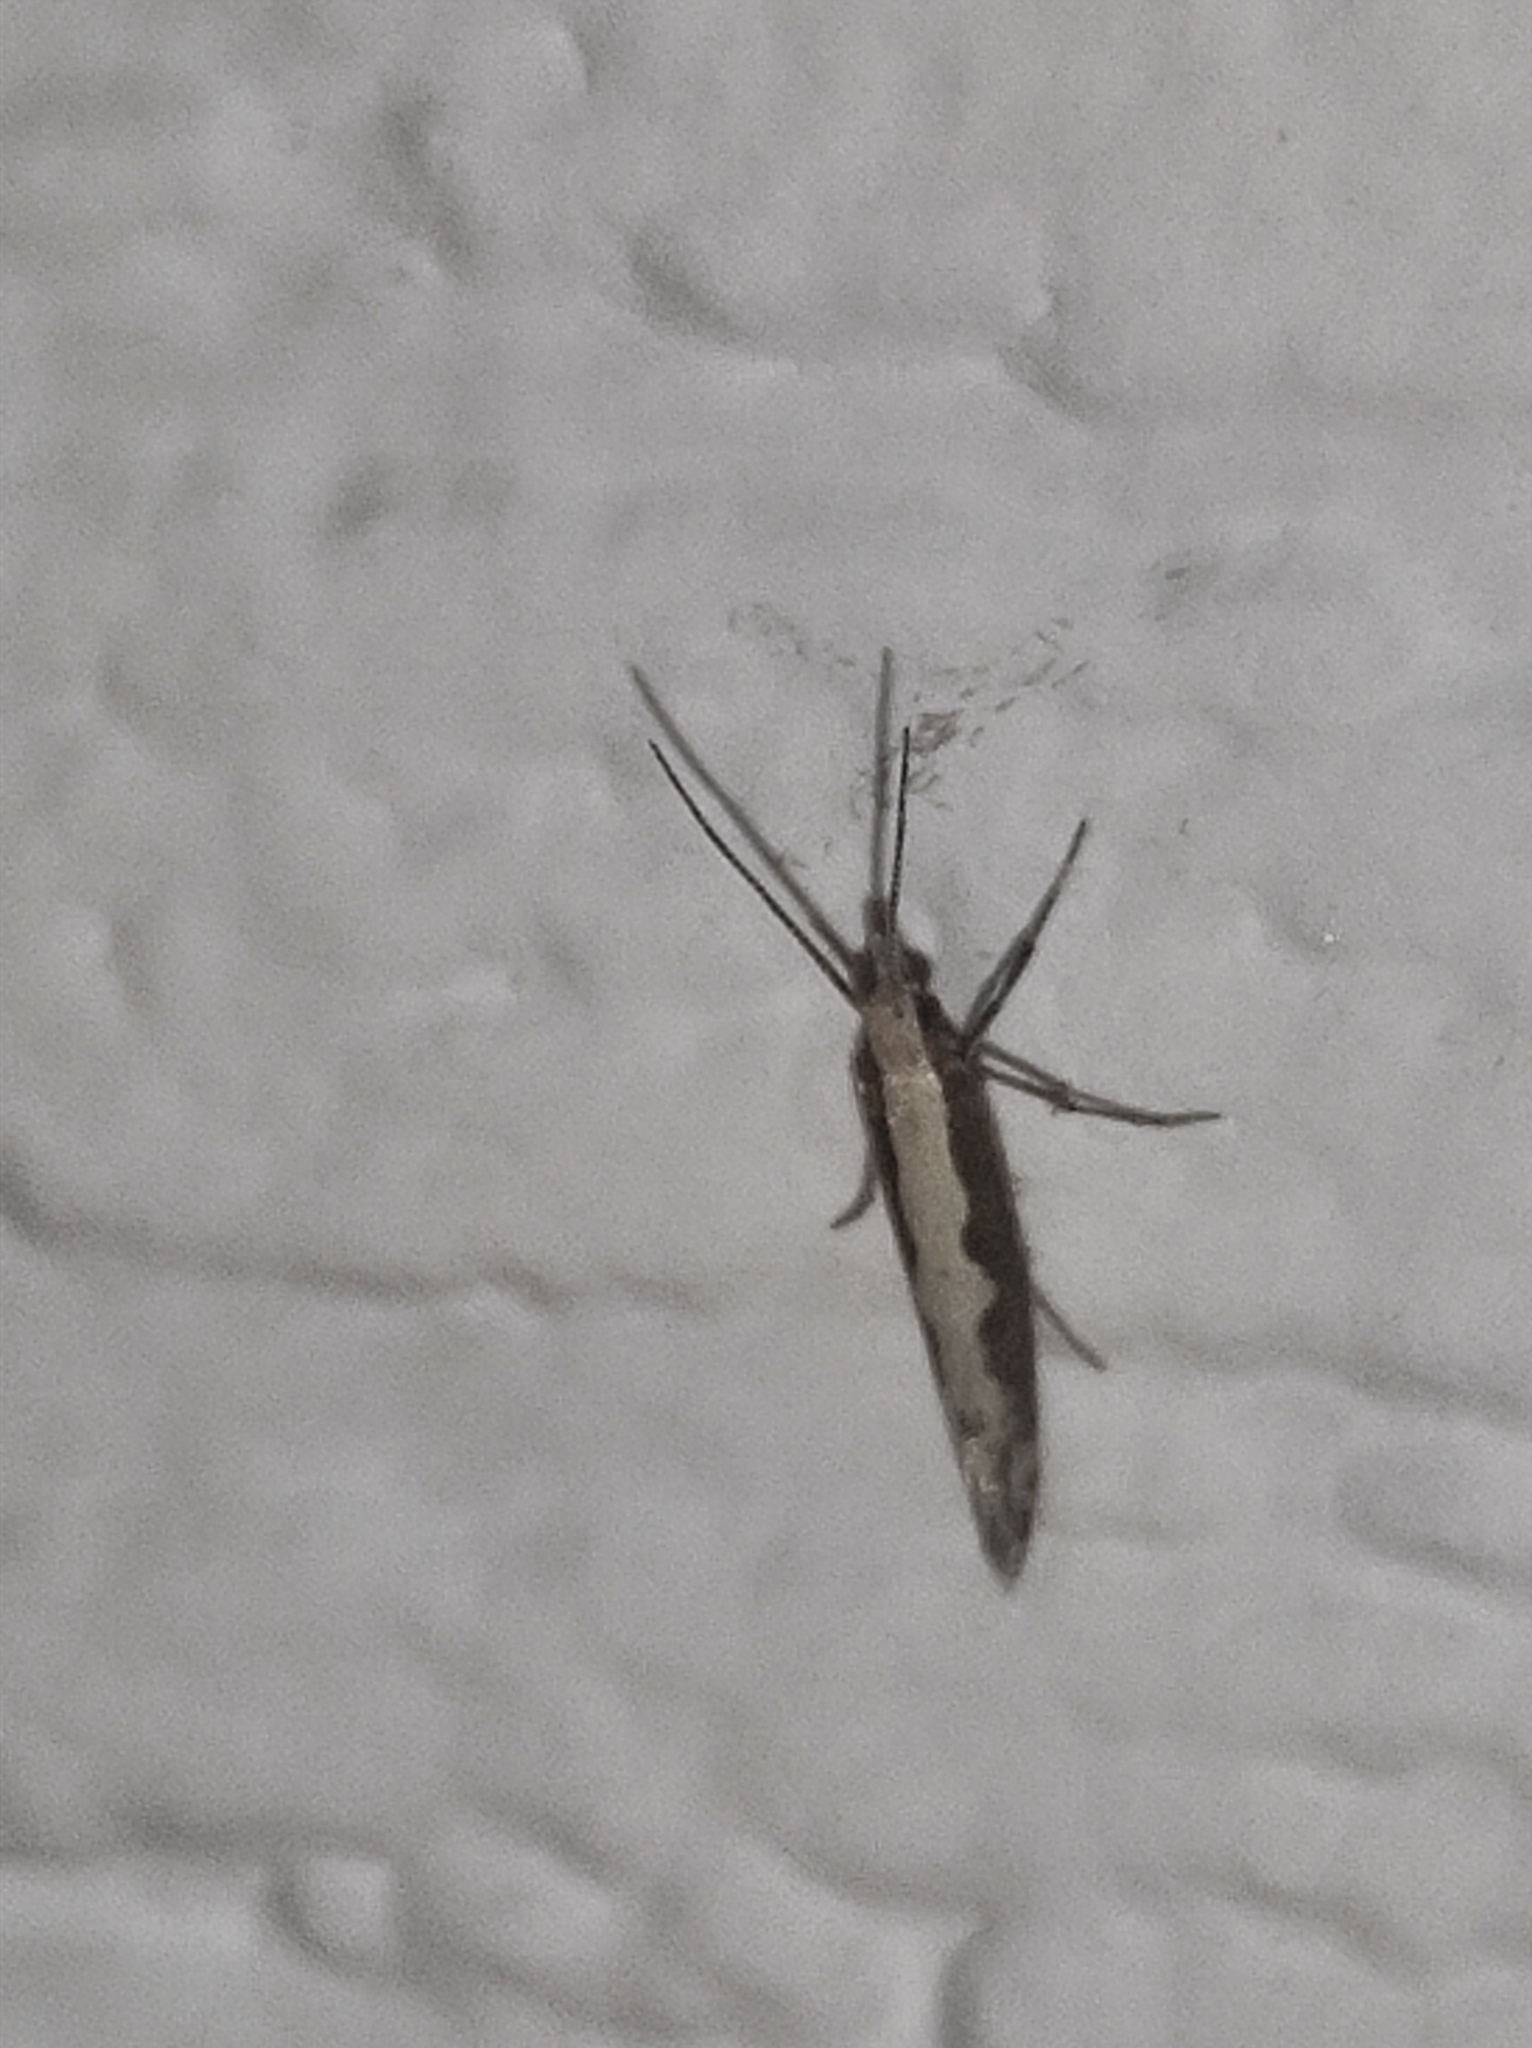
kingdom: Animalia
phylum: Arthropoda
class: Insecta
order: Lepidoptera
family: Plutellidae
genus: Plutella
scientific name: Plutella xylostella
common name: Diamond-back moth
